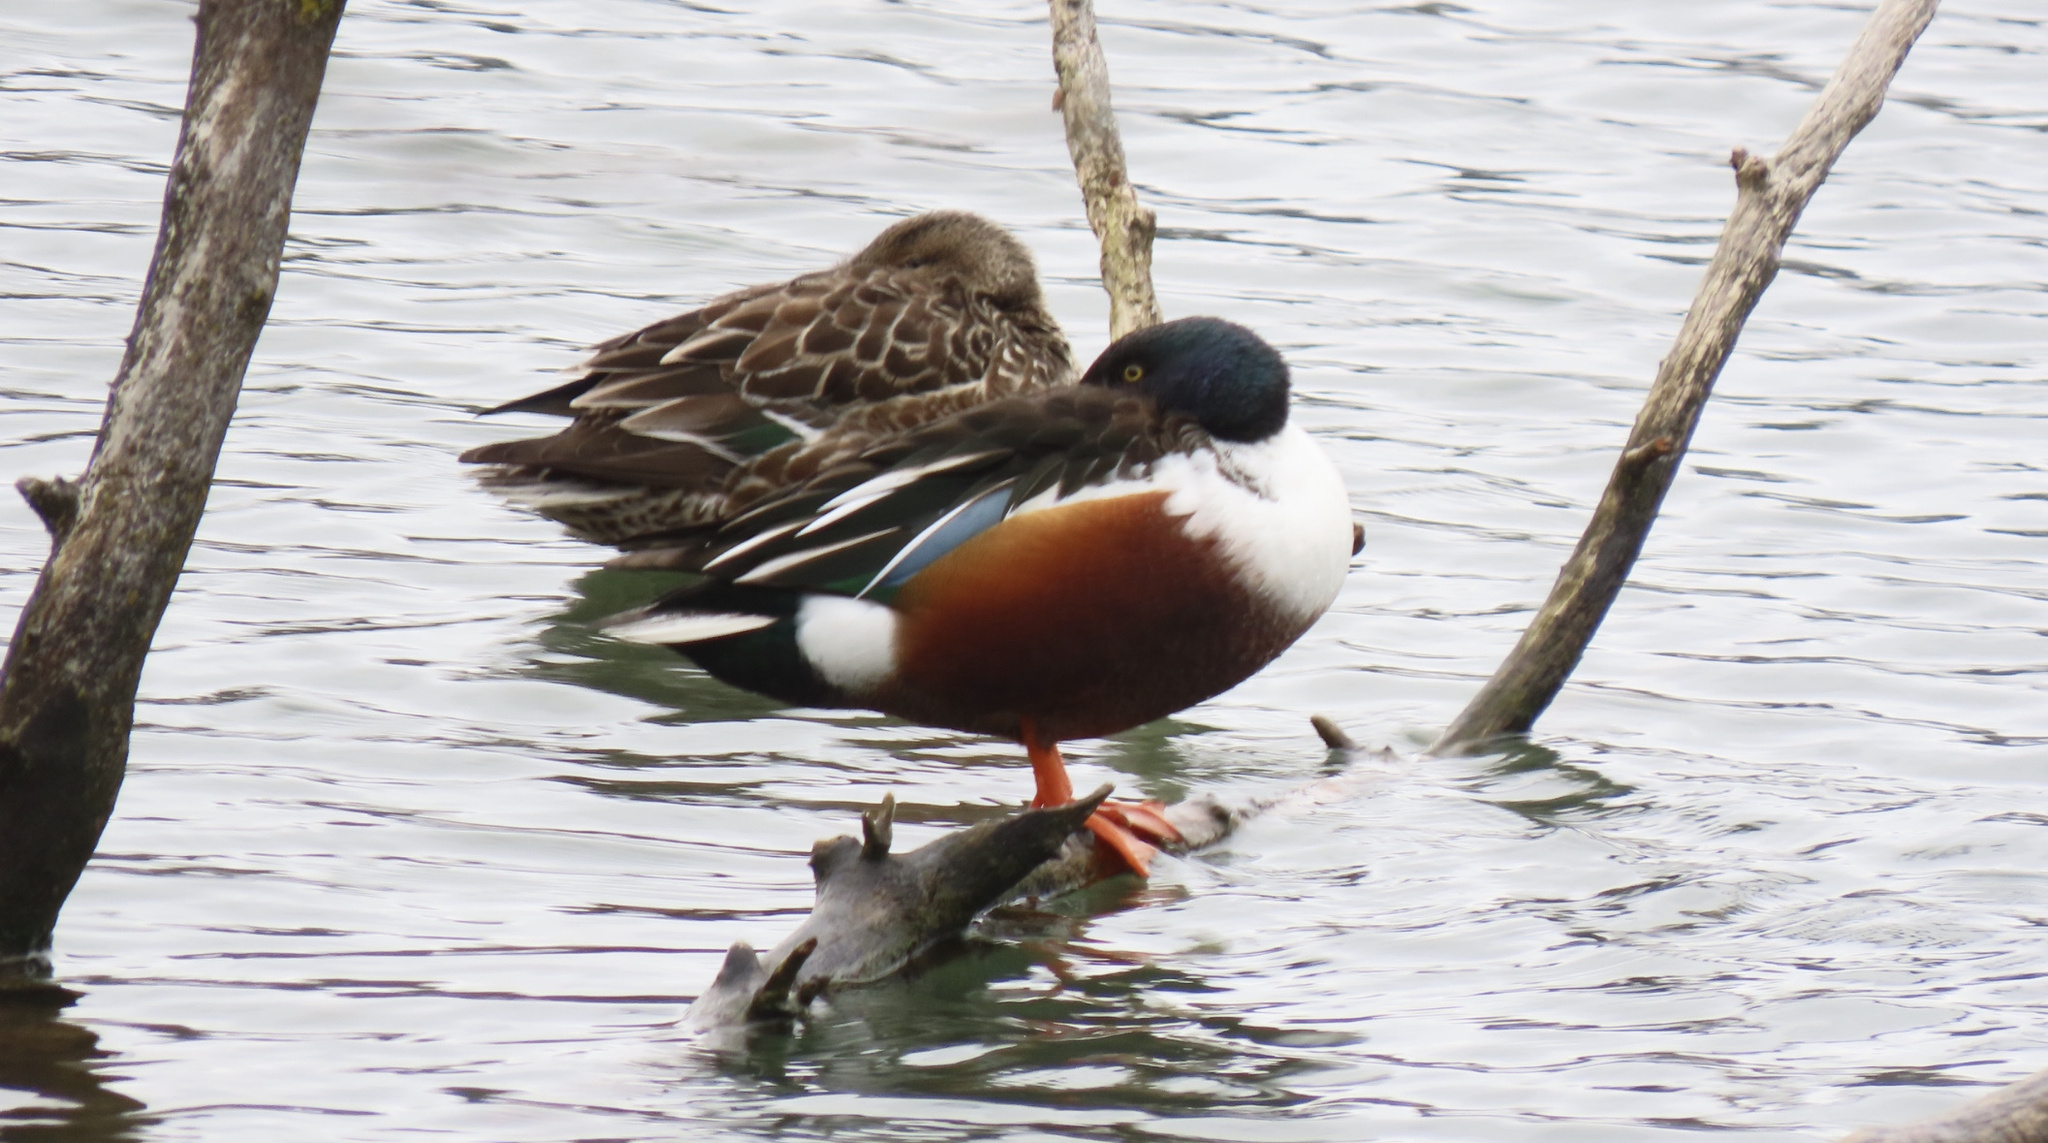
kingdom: Animalia
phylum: Chordata
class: Aves
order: Anseriformes
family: Anatidae
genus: Spatula
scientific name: Spatula clypeata
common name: Northern shoveler
